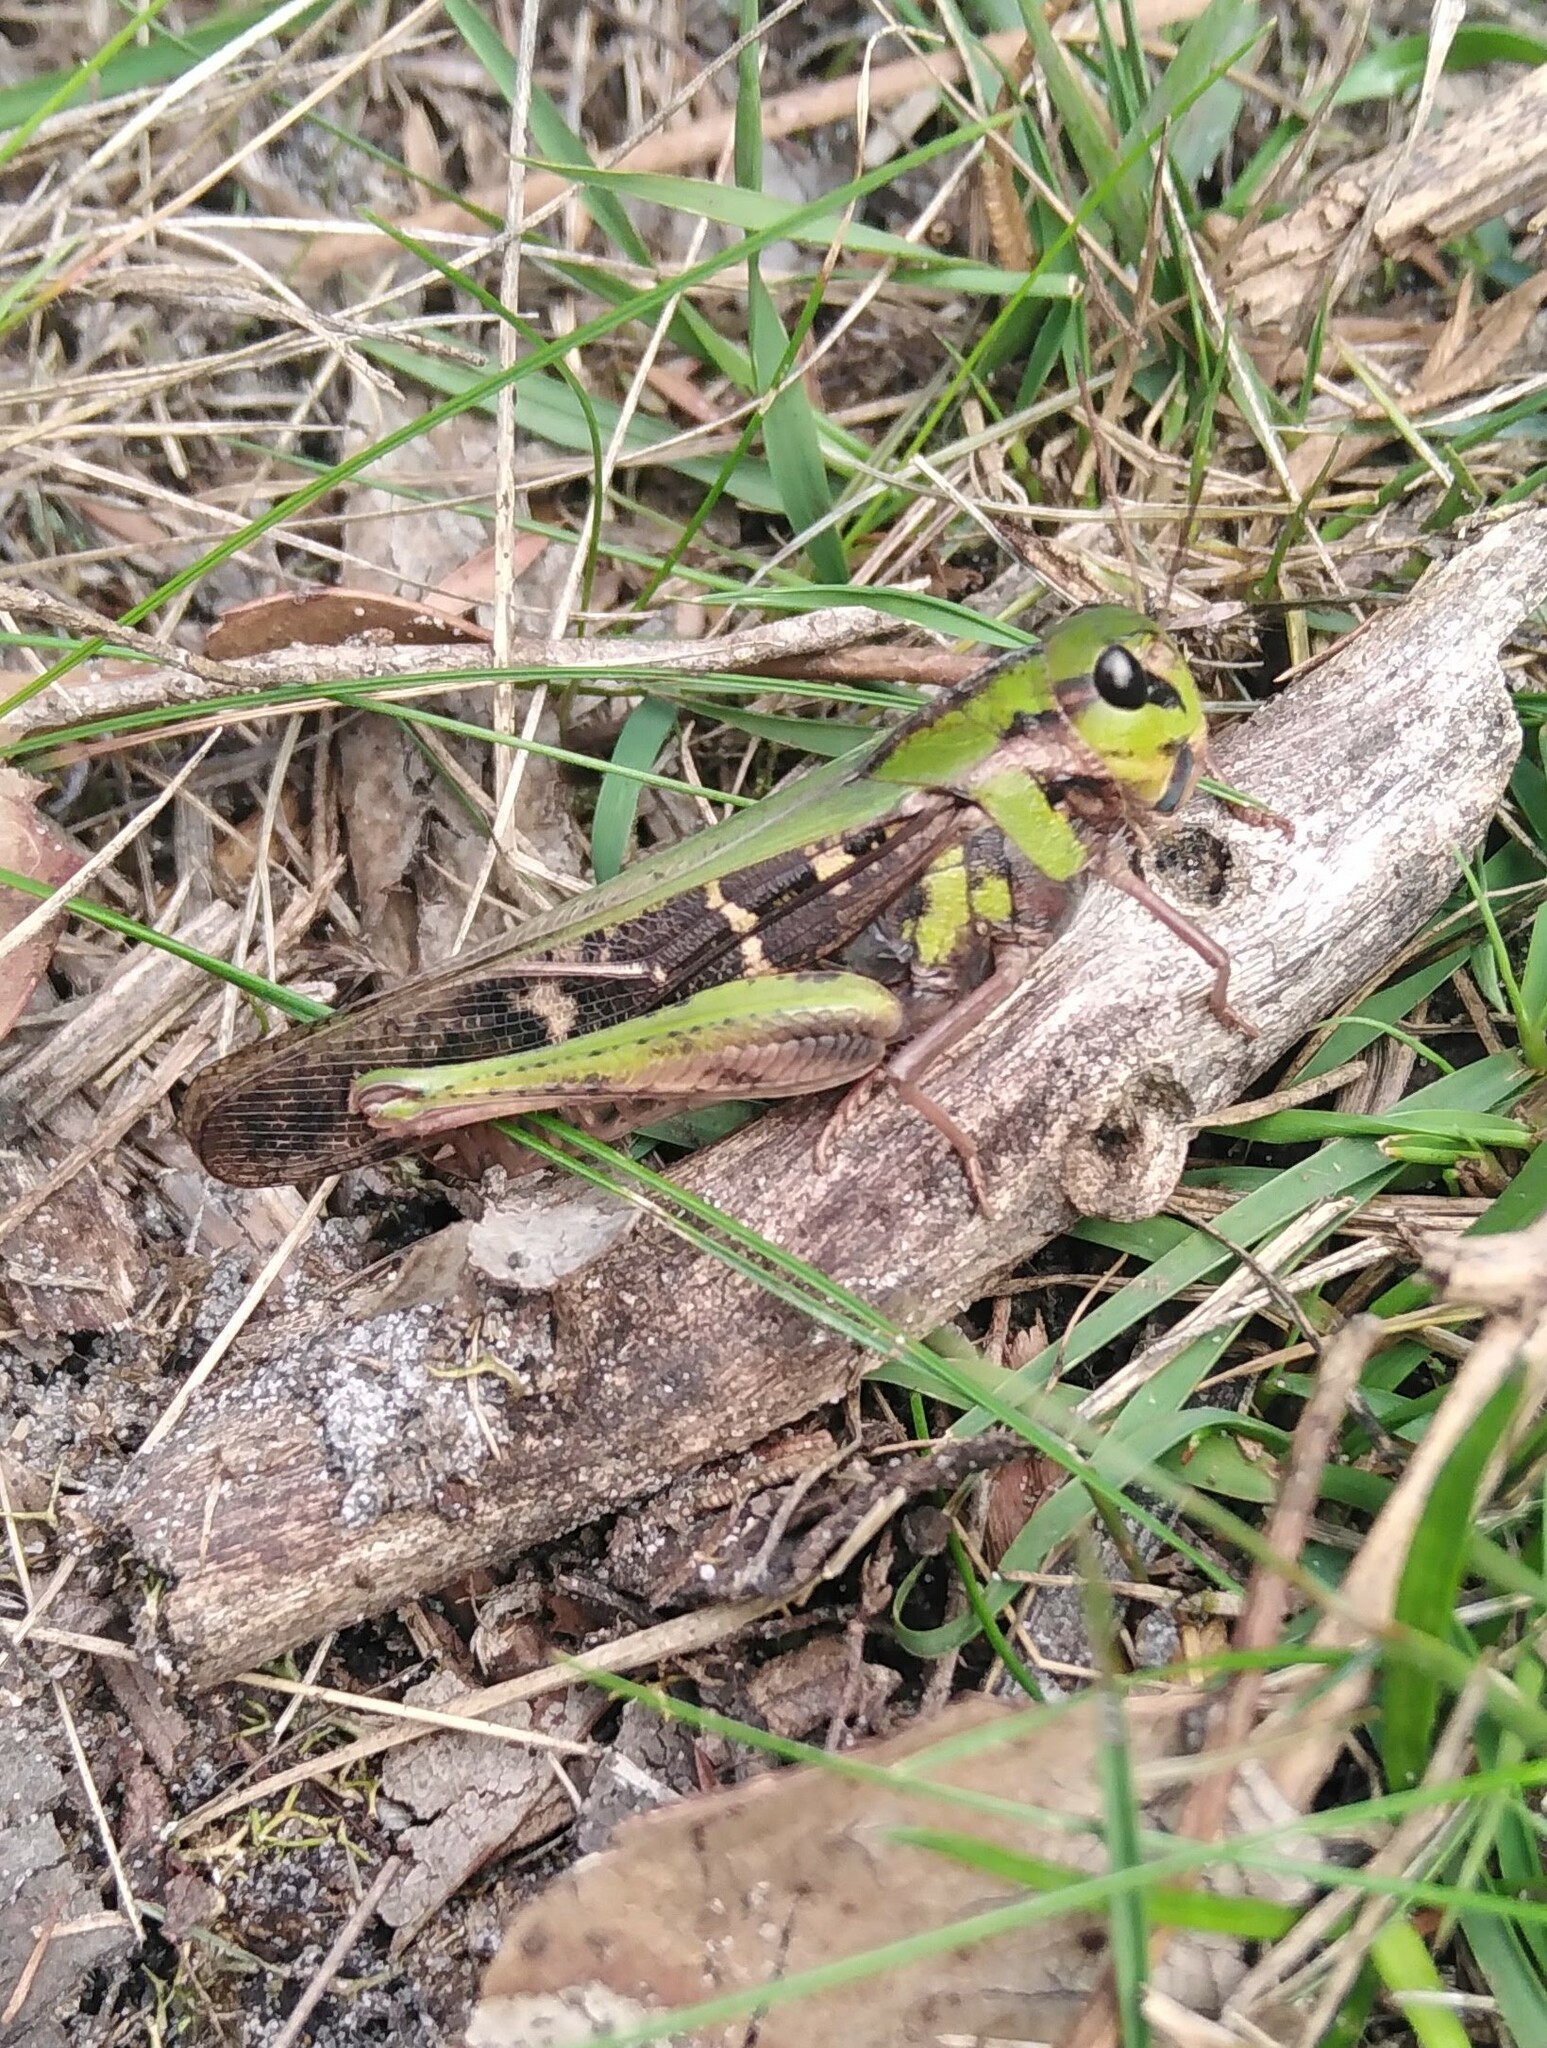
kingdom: Animalia
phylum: Arthropoda
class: Insecta
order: Orthoptera
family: Acrididae
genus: Gastrimargus
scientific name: Gastrimargus musicus
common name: Yellow-winged locust
